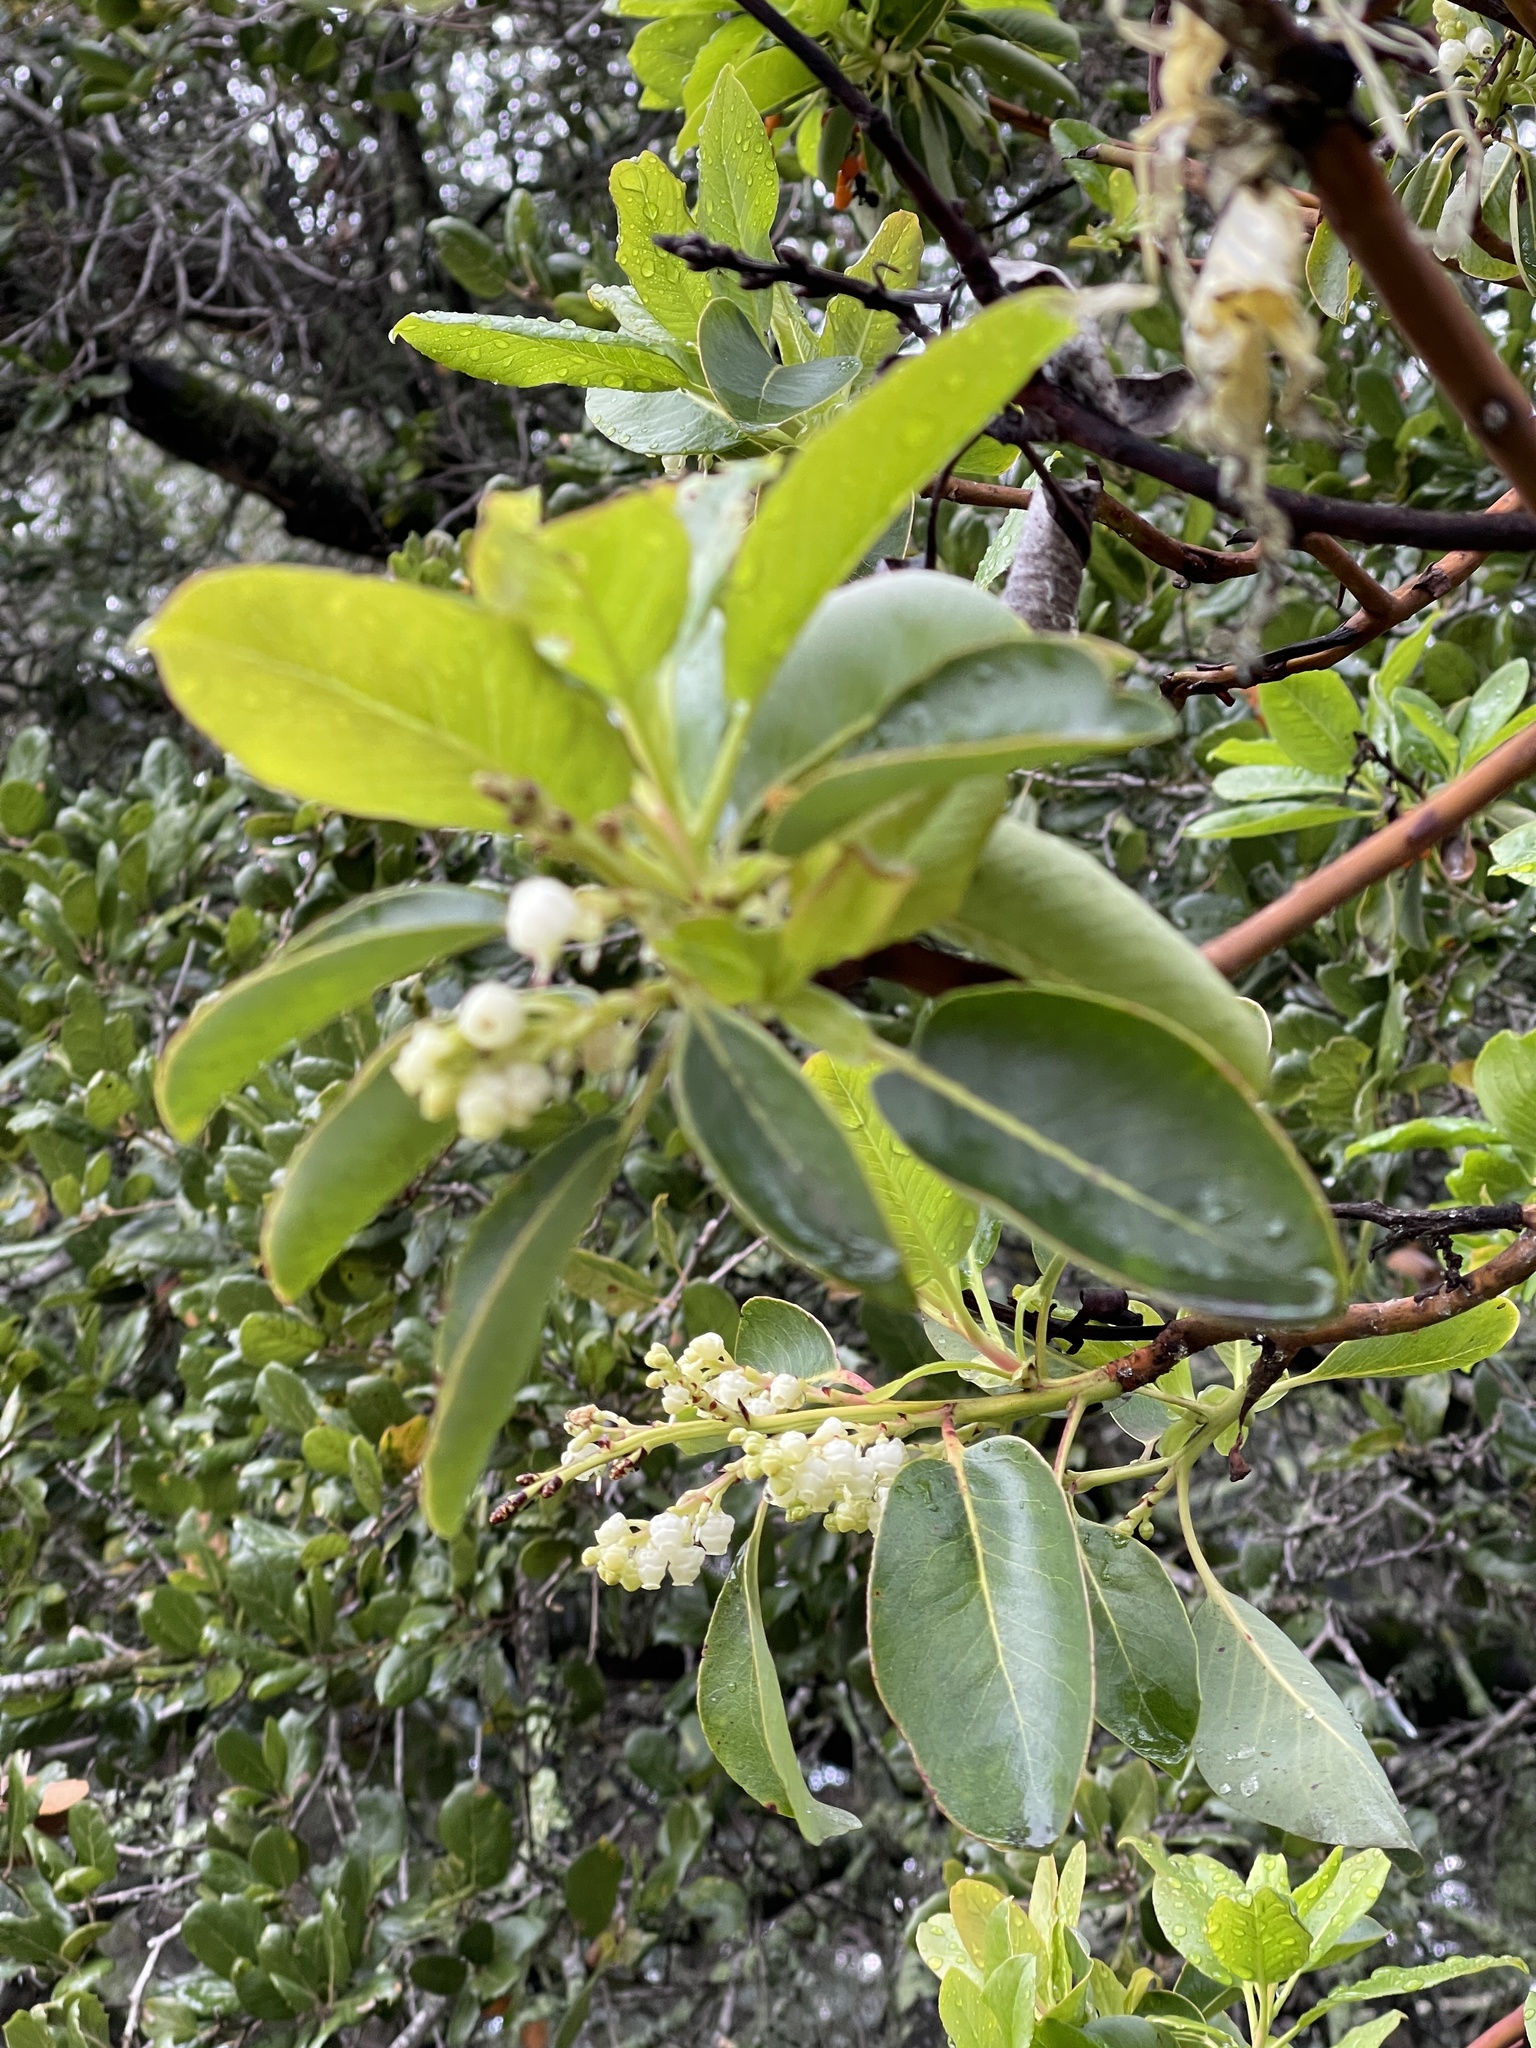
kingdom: Plantae
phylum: Tracheophyta
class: Magnoliopsida
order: Ericales
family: Ericaceae
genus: Arbutus
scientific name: Arbutus menziesii
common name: Pacific madrone
